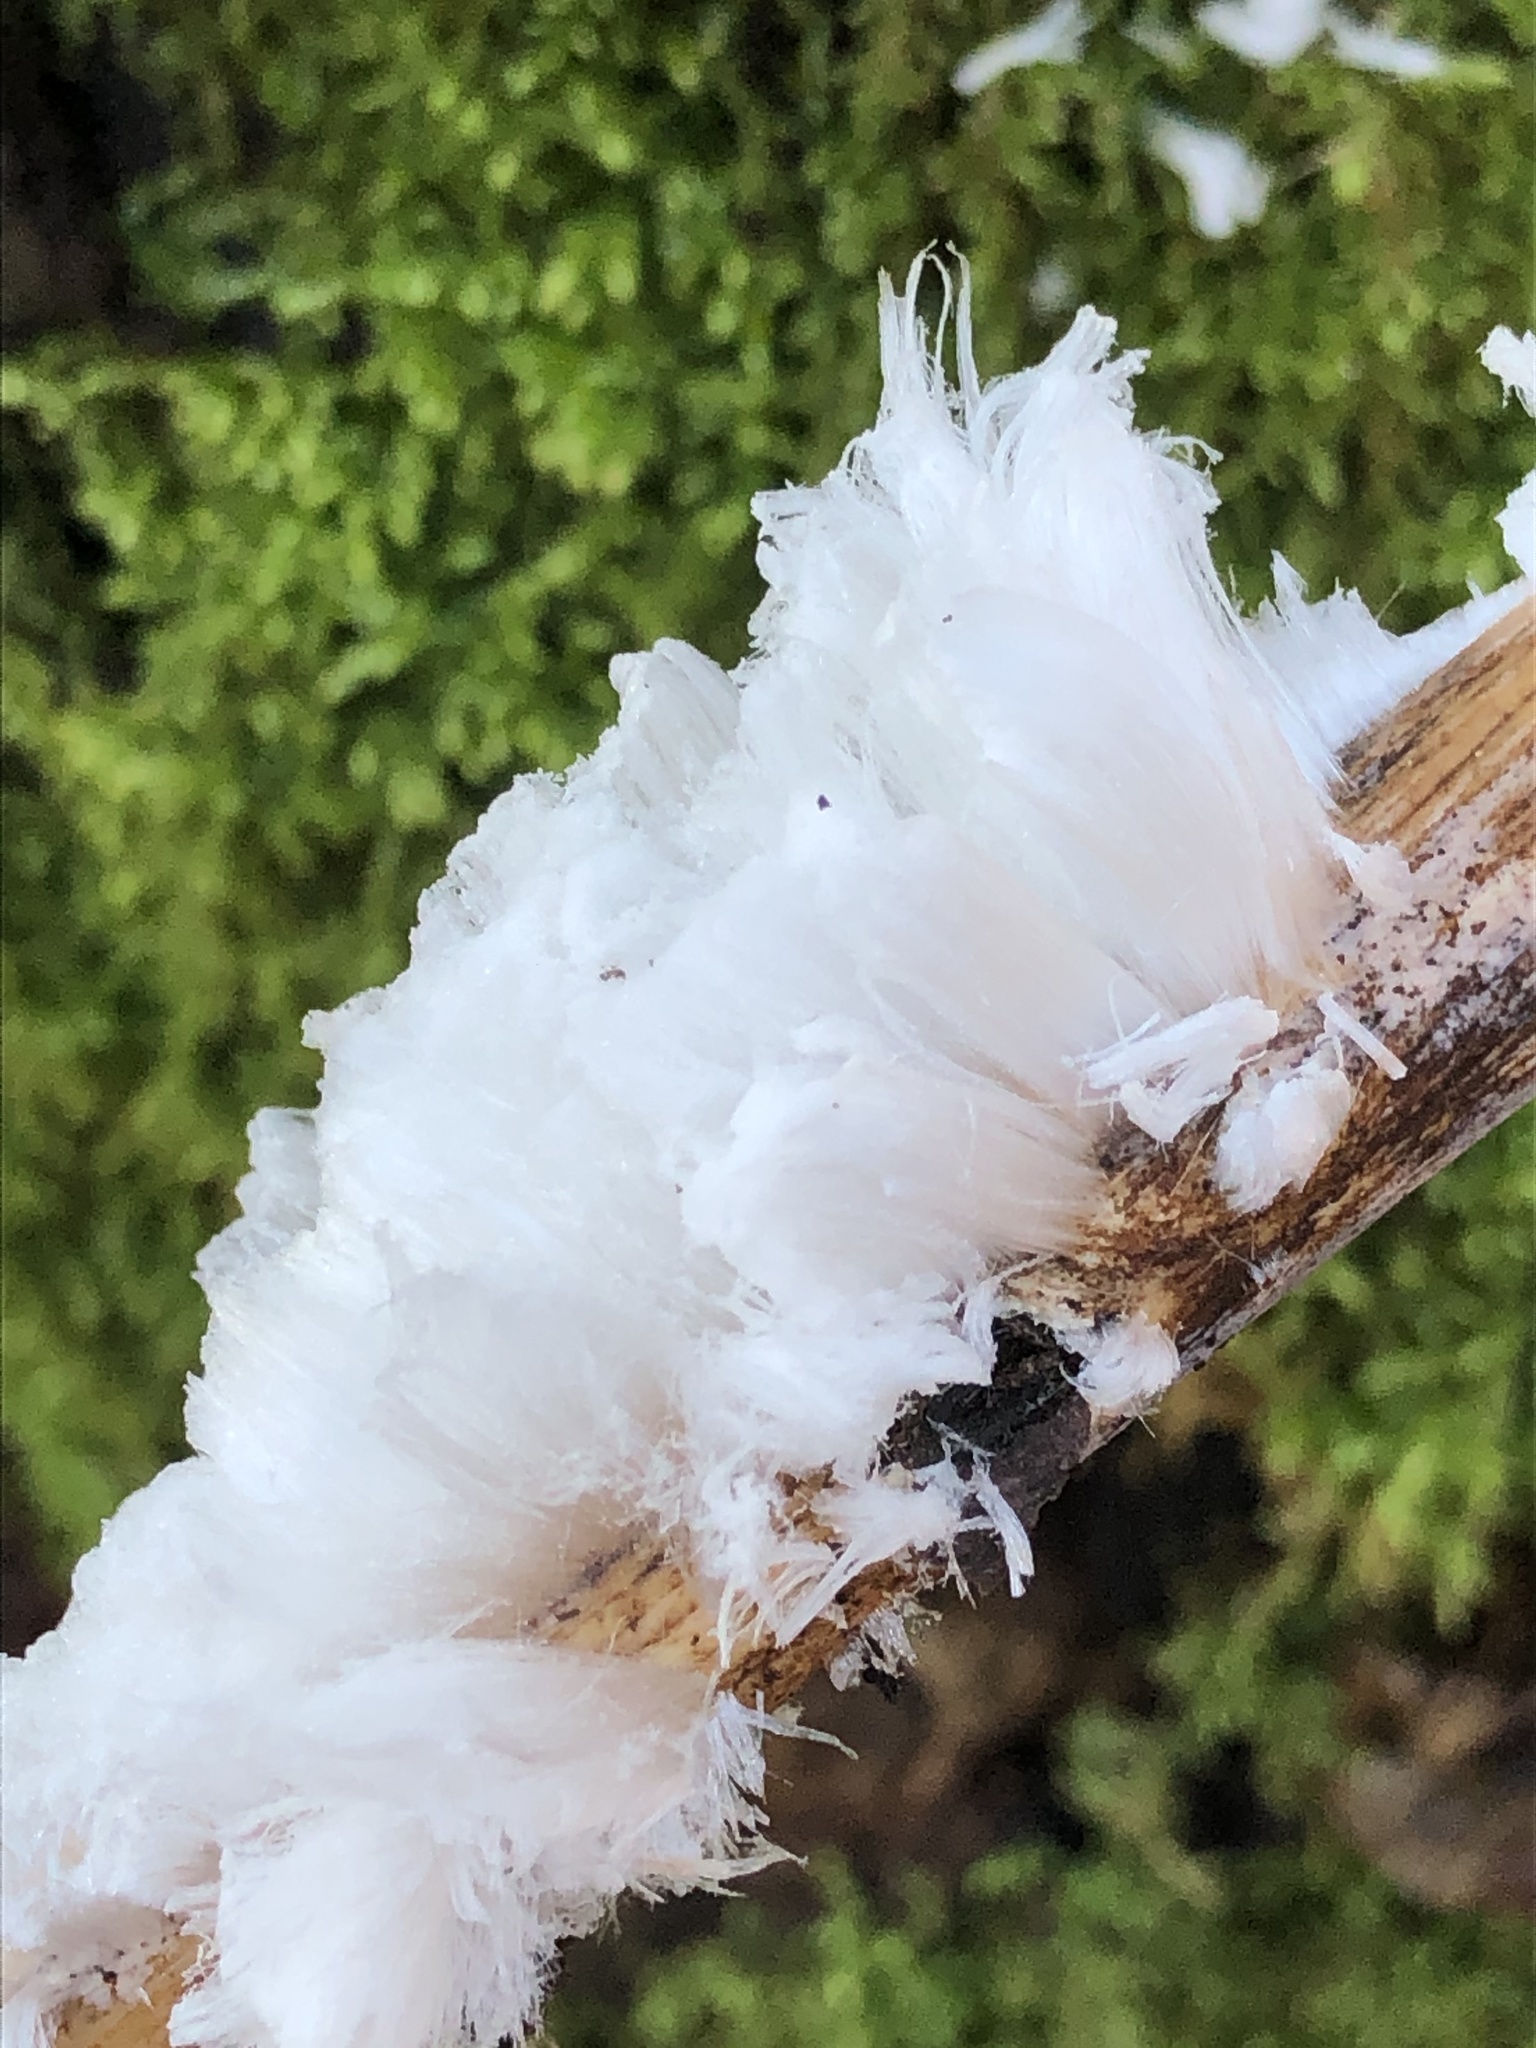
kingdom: Fungi
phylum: Basidiomycota
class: Agaricomycetes
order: Auriculariales
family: Auriculariaceae
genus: Exidiopsis
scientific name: Exidiopsis effusa
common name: Hair ice crust
